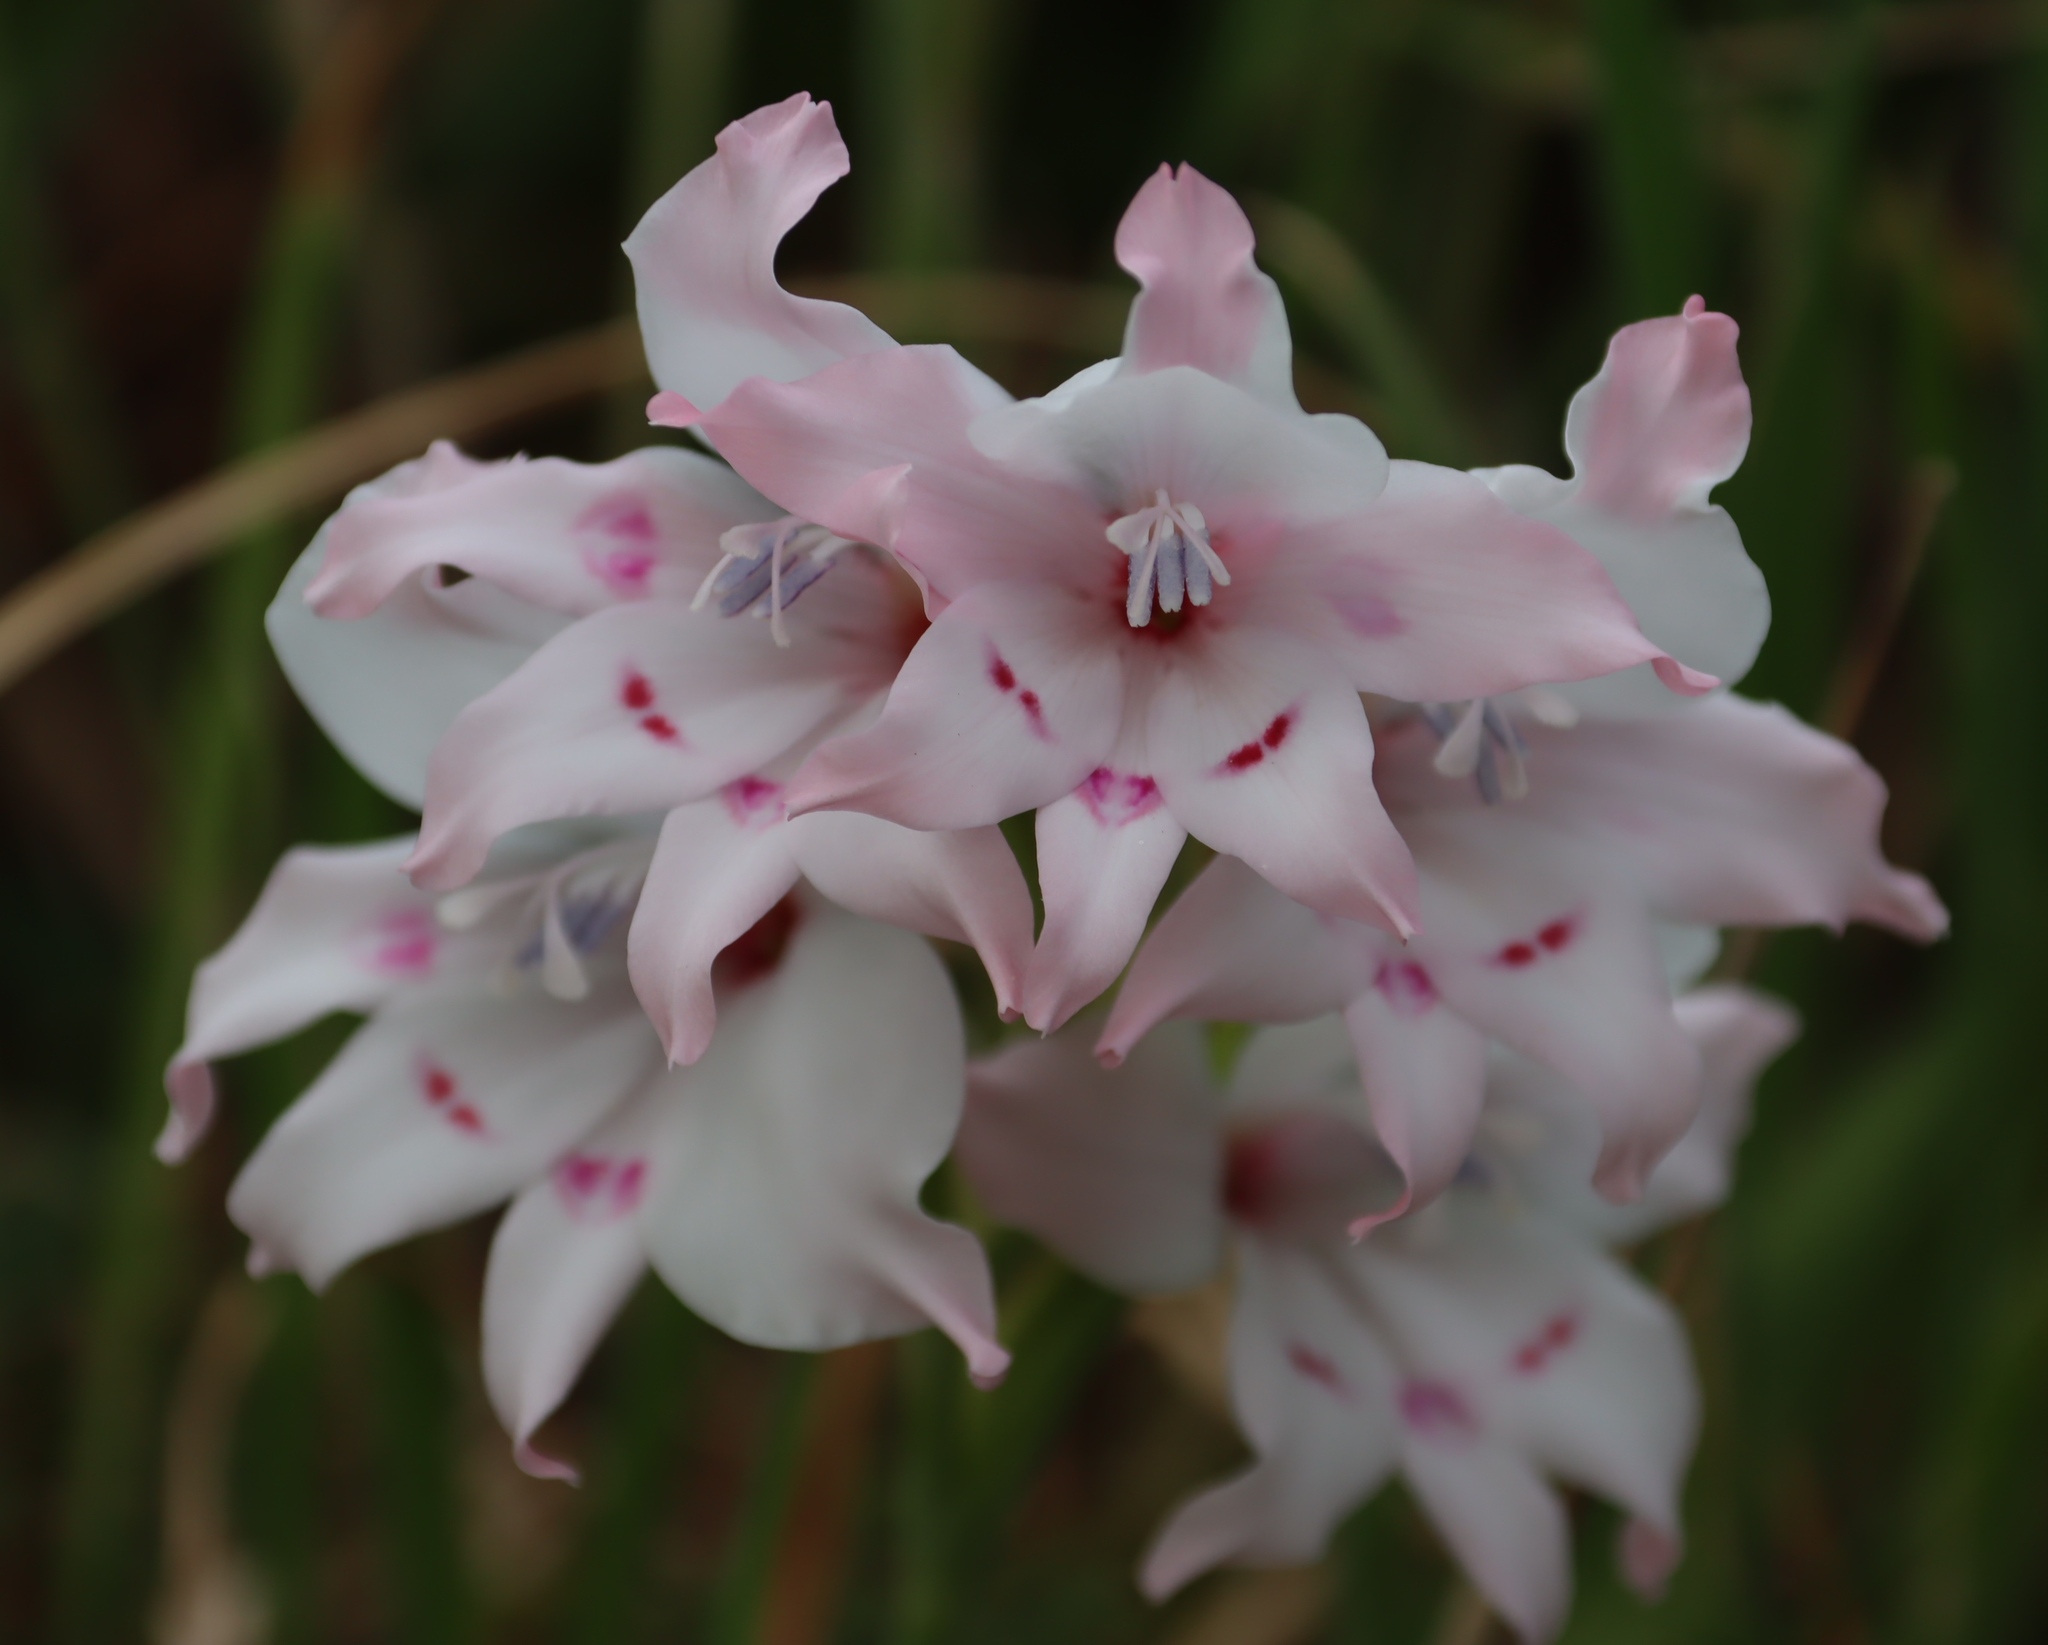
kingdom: Plantae
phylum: Tracheophyta
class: Liliopsida
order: Asparagales
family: Iridaceae
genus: Gladiolus
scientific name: Gladiolus carneus
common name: Painted-lady
